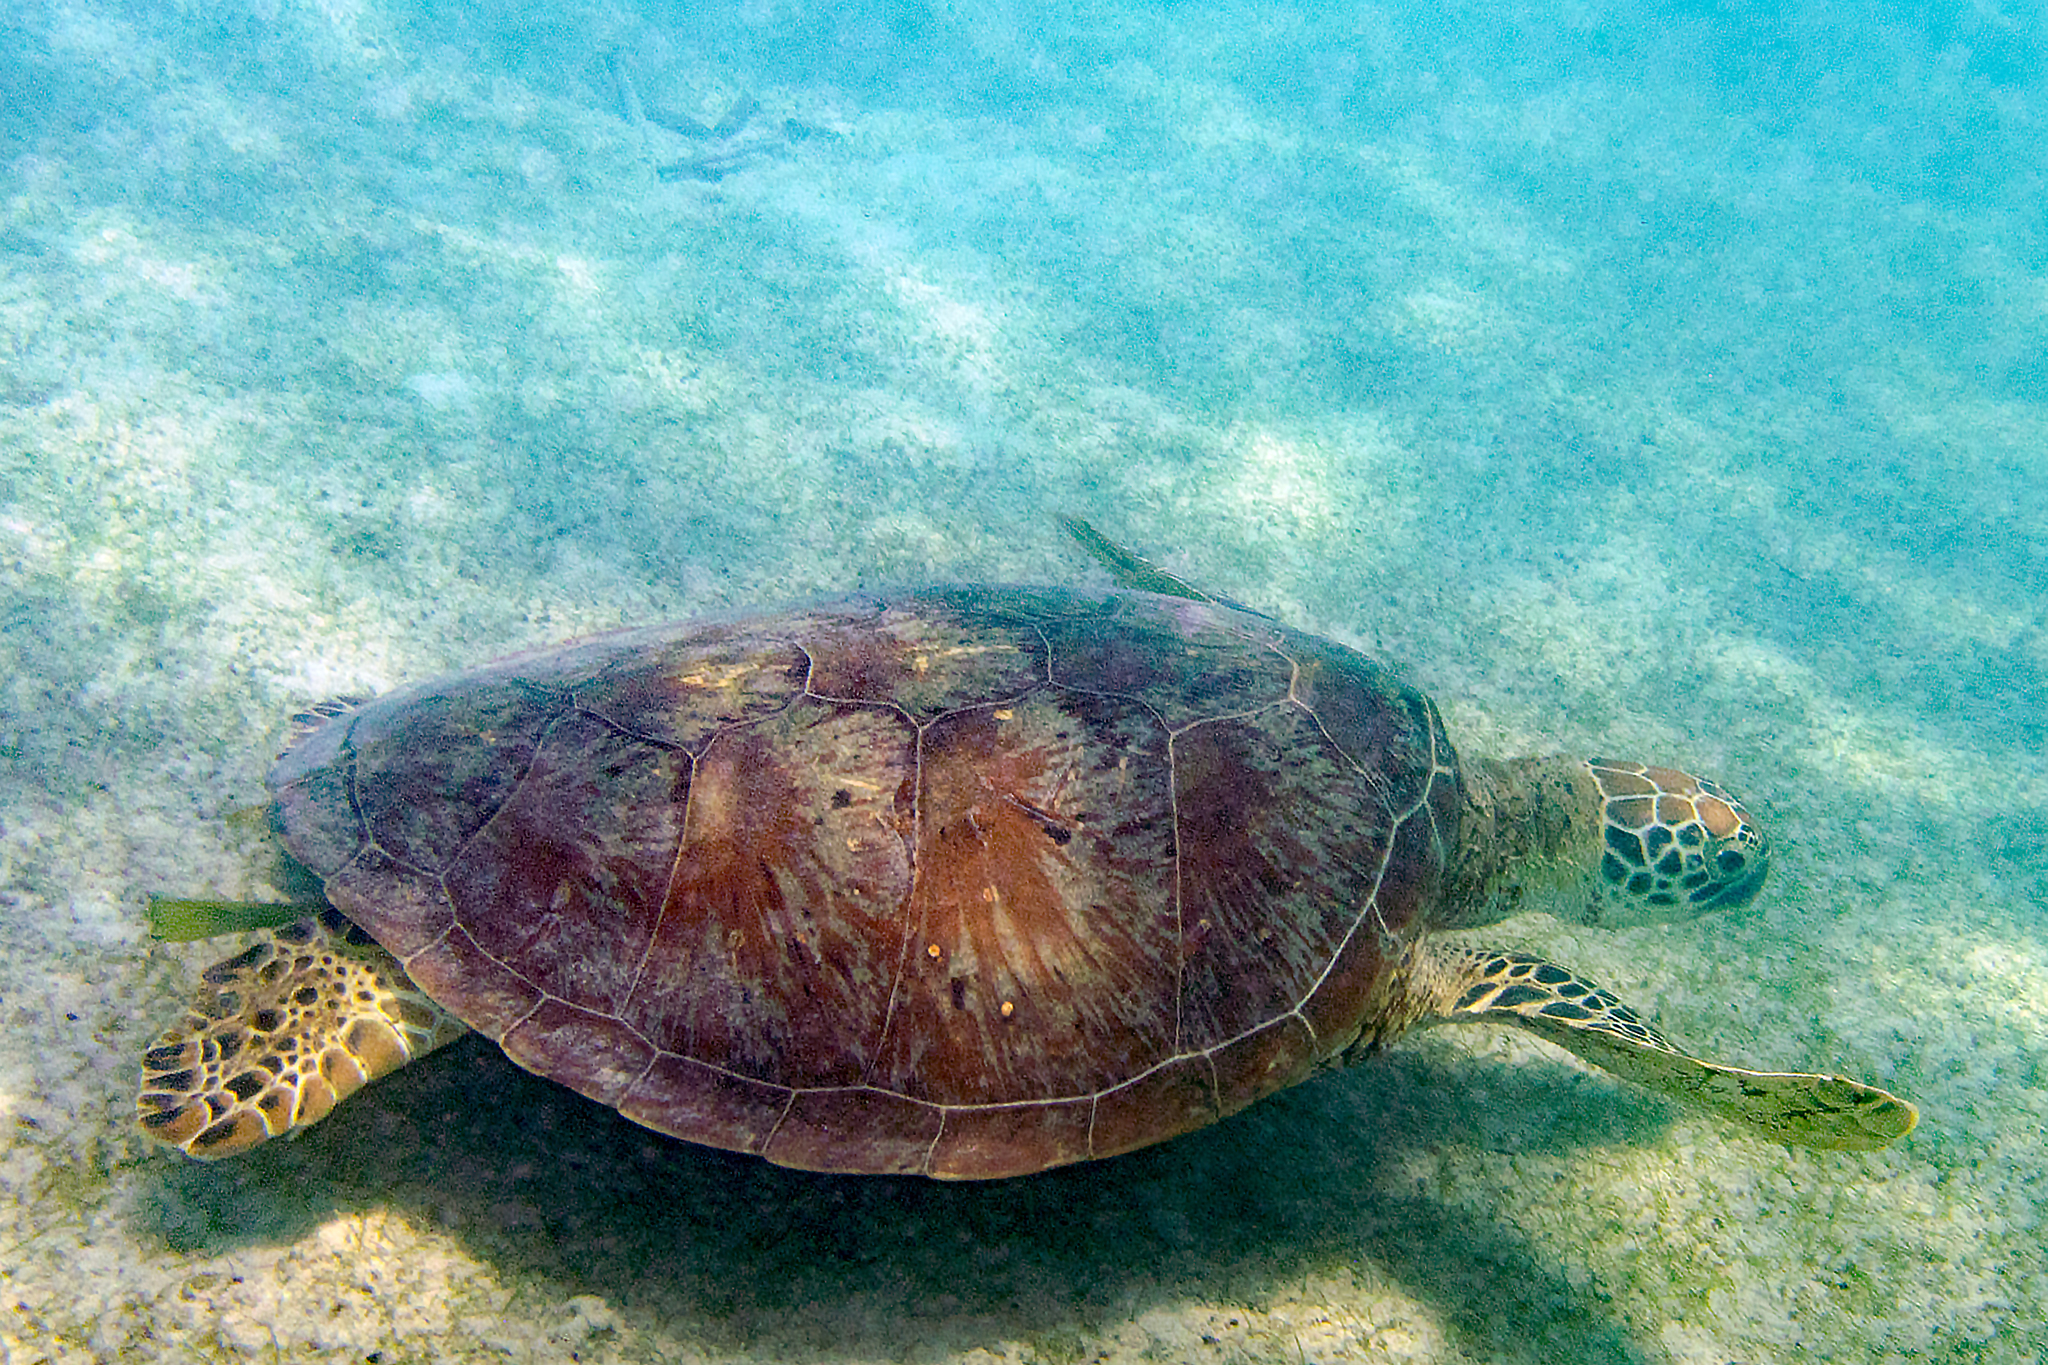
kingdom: Animalia
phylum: Chordata
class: Testudines
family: Cheloniidae
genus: Chelonia
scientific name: Chelonia mydas
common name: Green turtle
